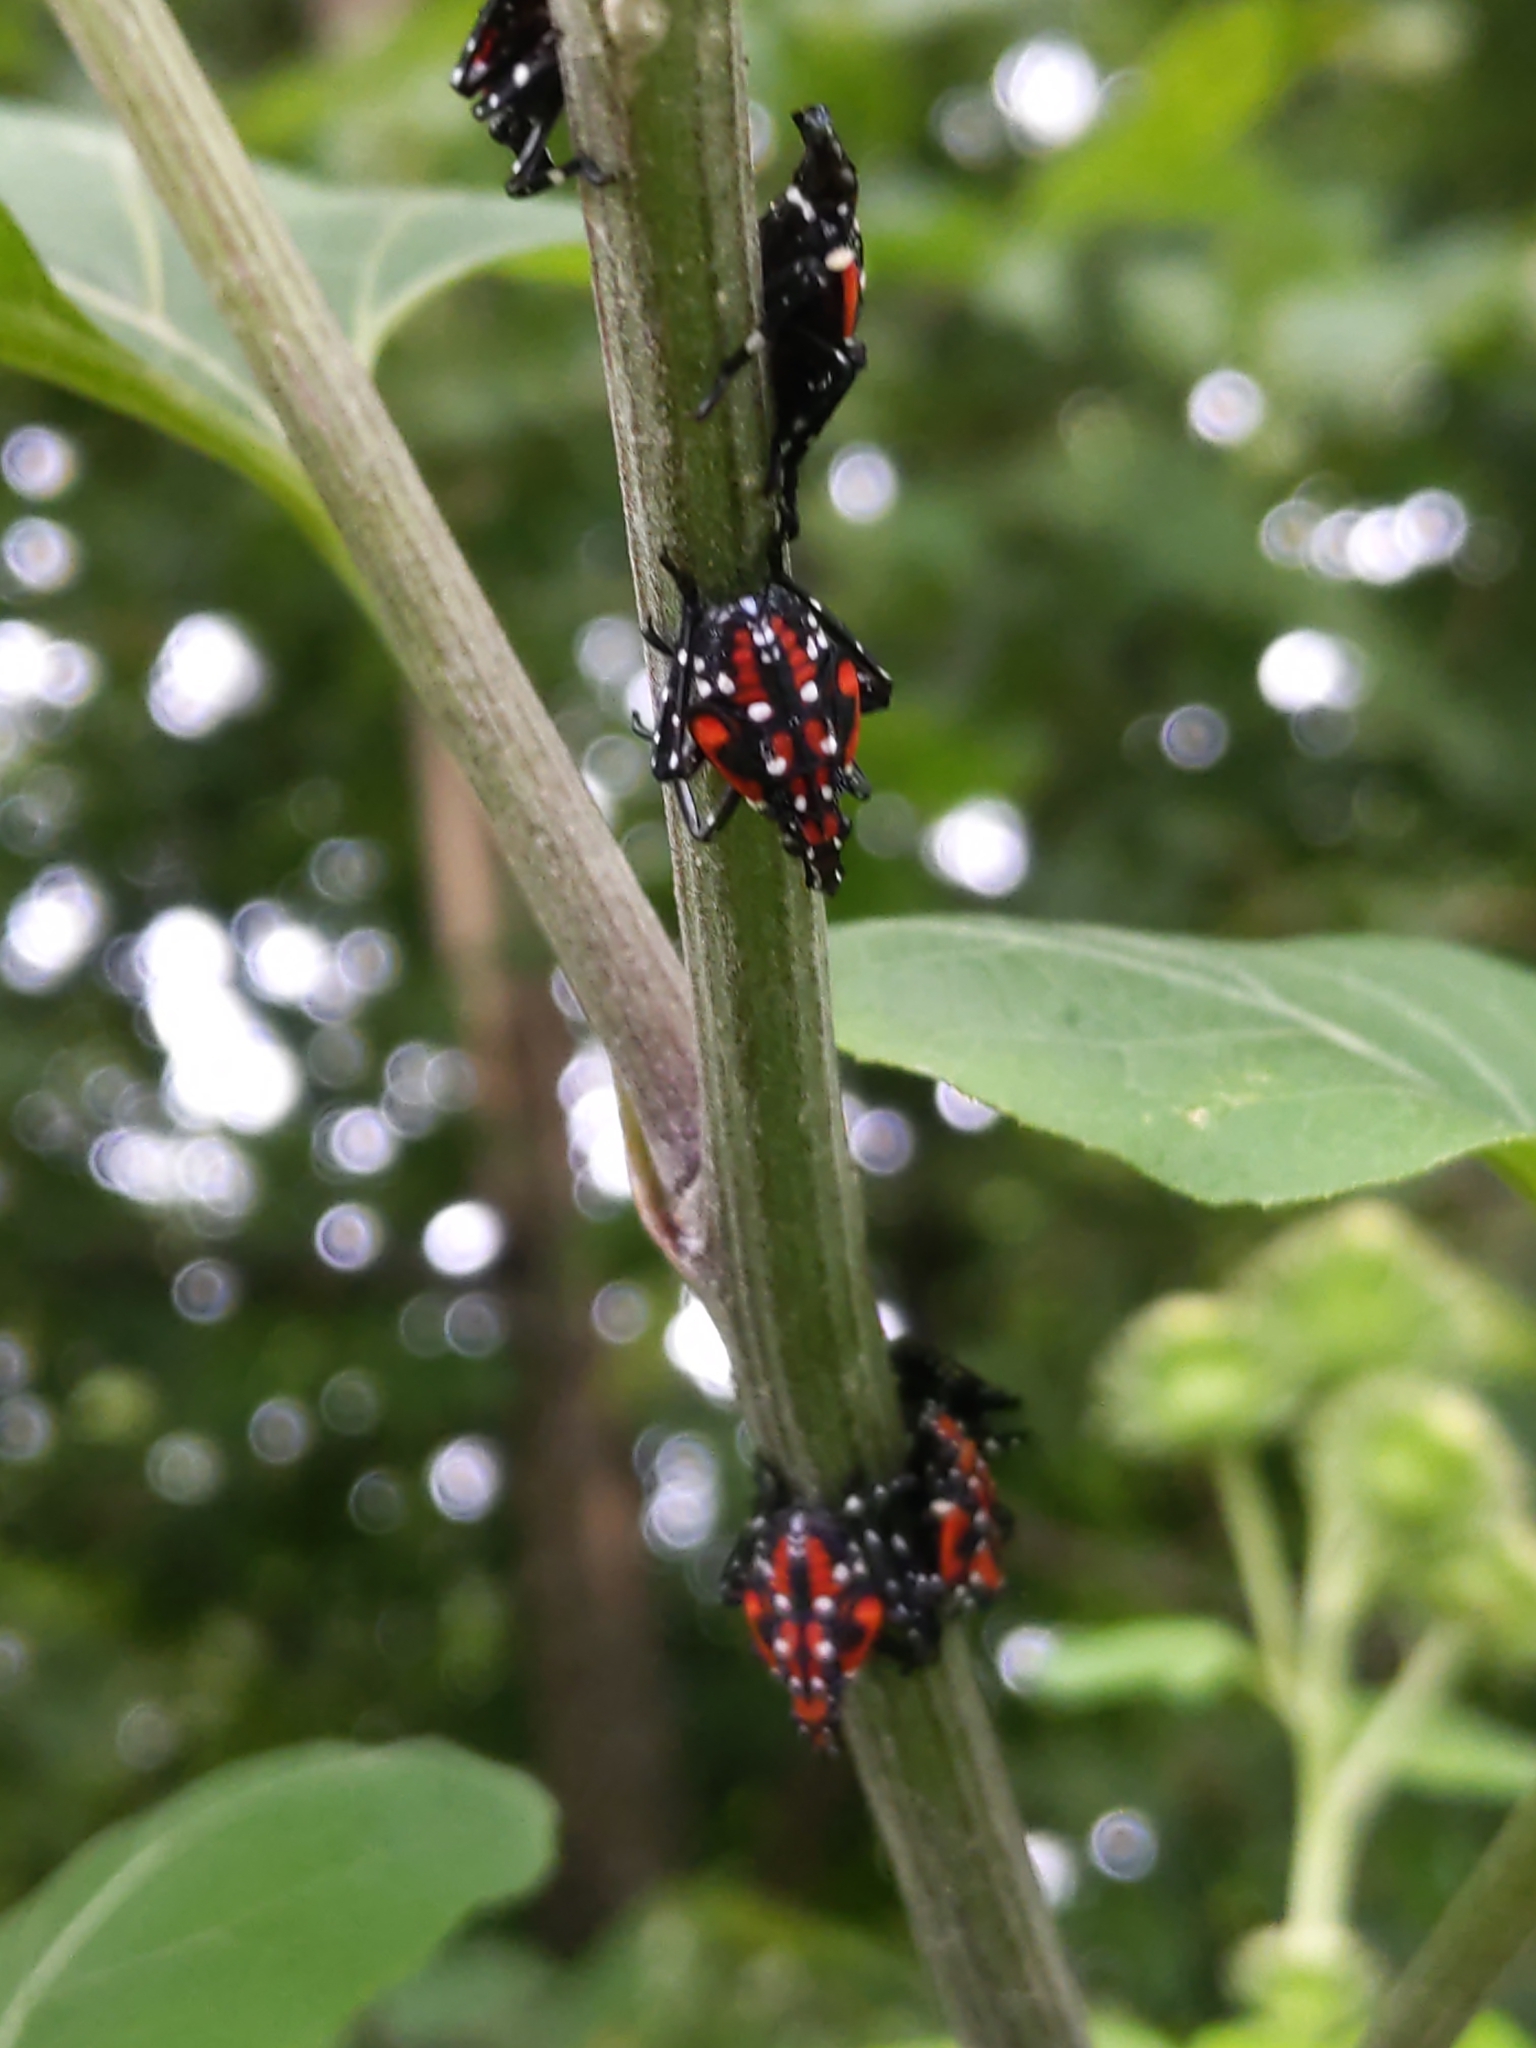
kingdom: Animalia
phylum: Arthropoda
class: Insecta
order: Hemiptera
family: Fulgoridae
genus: Lycorma
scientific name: Lycorma delicatula
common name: Spotted lanternfly
